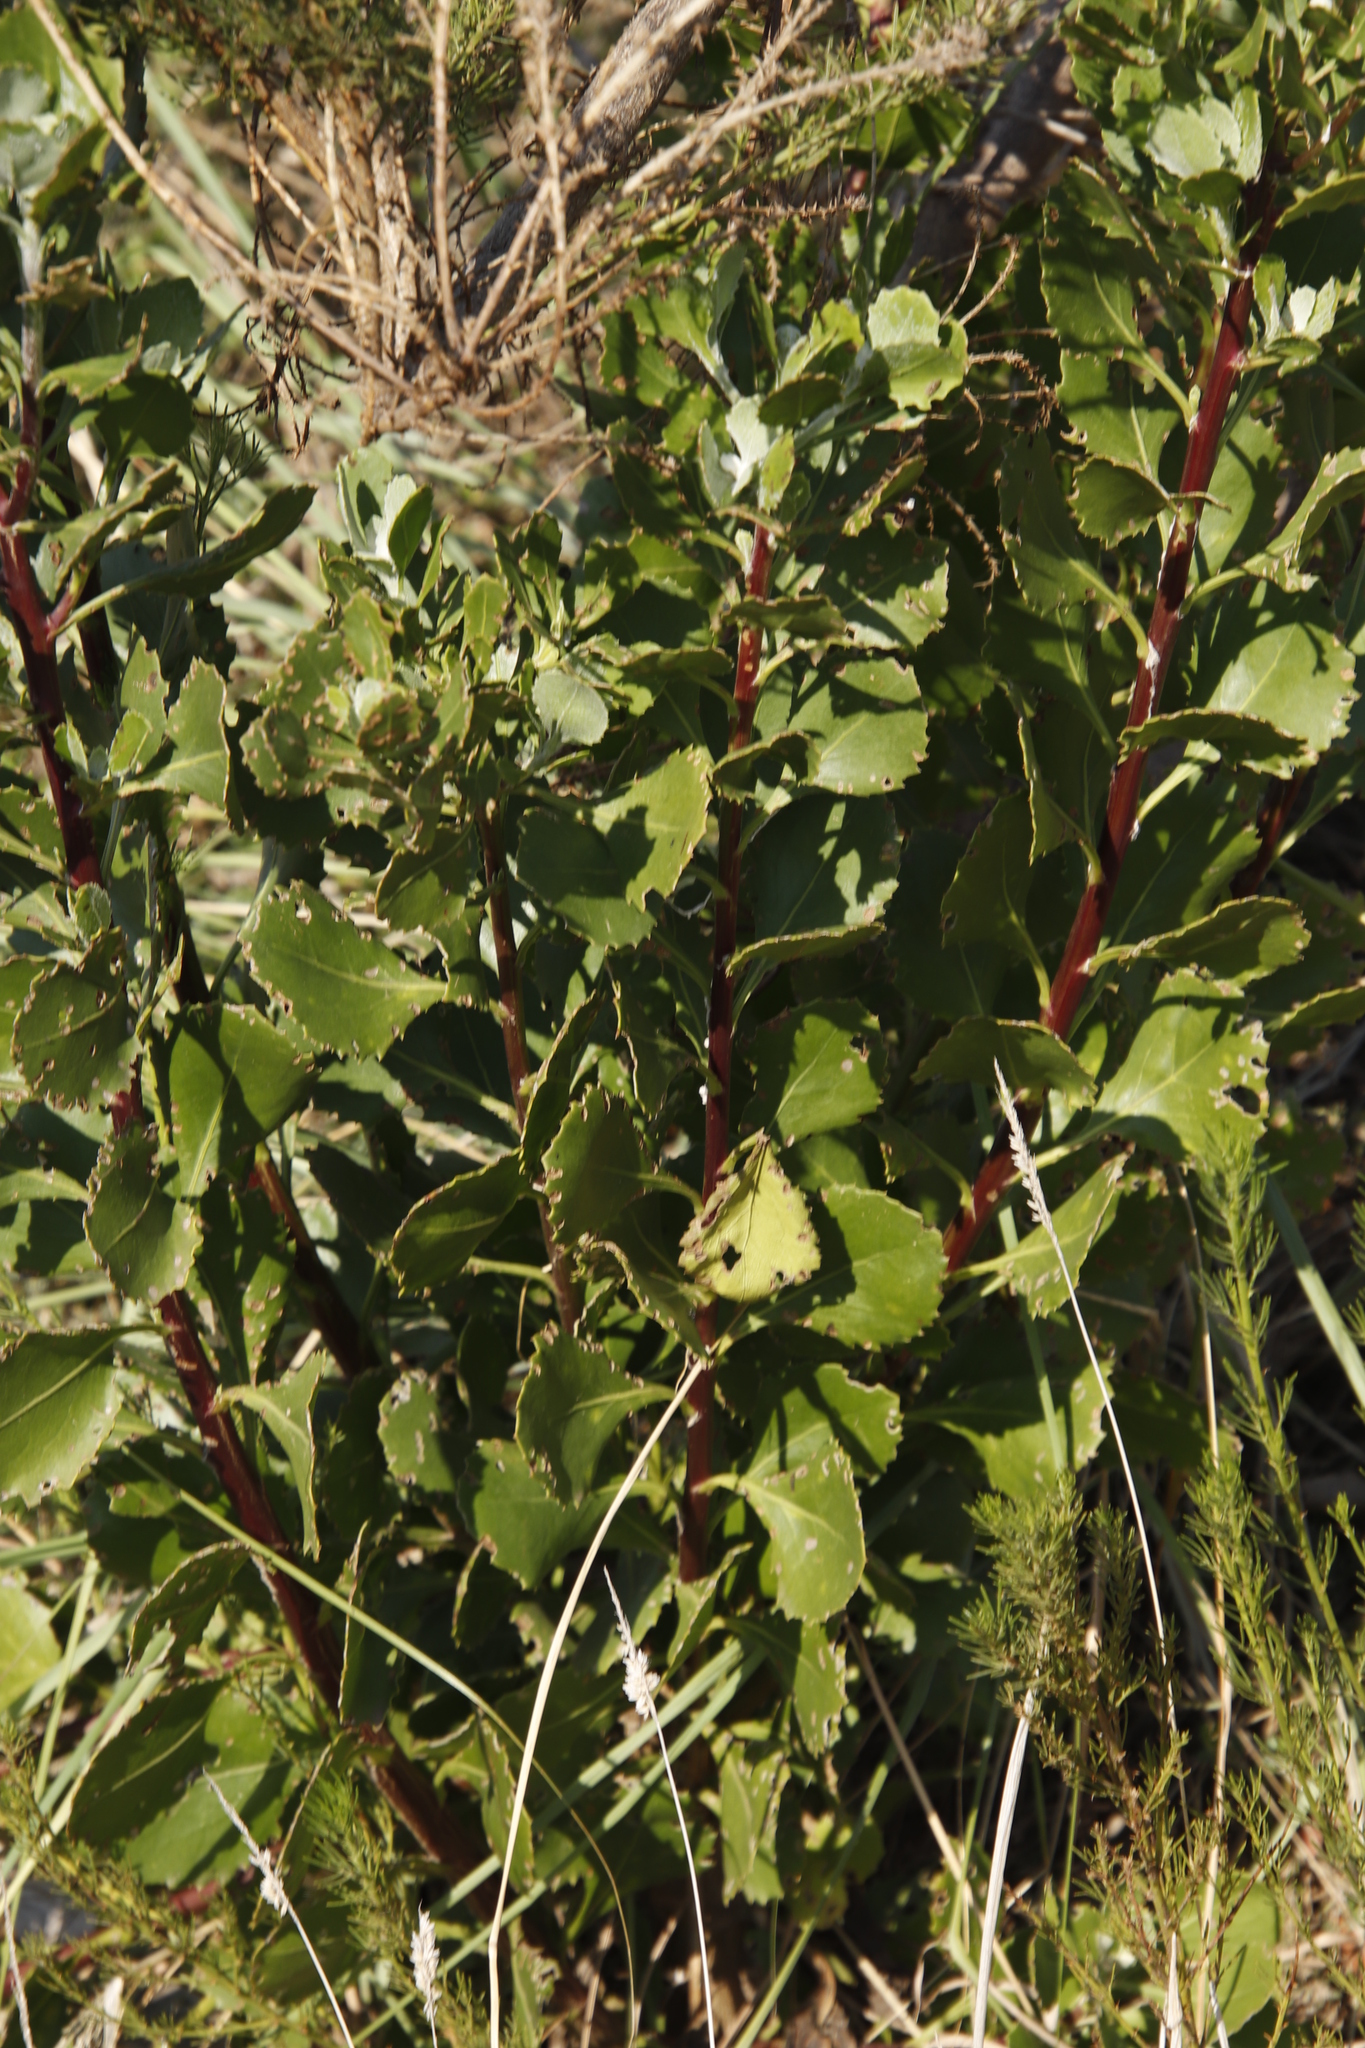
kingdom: Plantae
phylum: Tracheophyta
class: Magnoliopsida
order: Asterales
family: Asteraceae
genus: Osteospermum
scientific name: Osteospermum moniliferum
